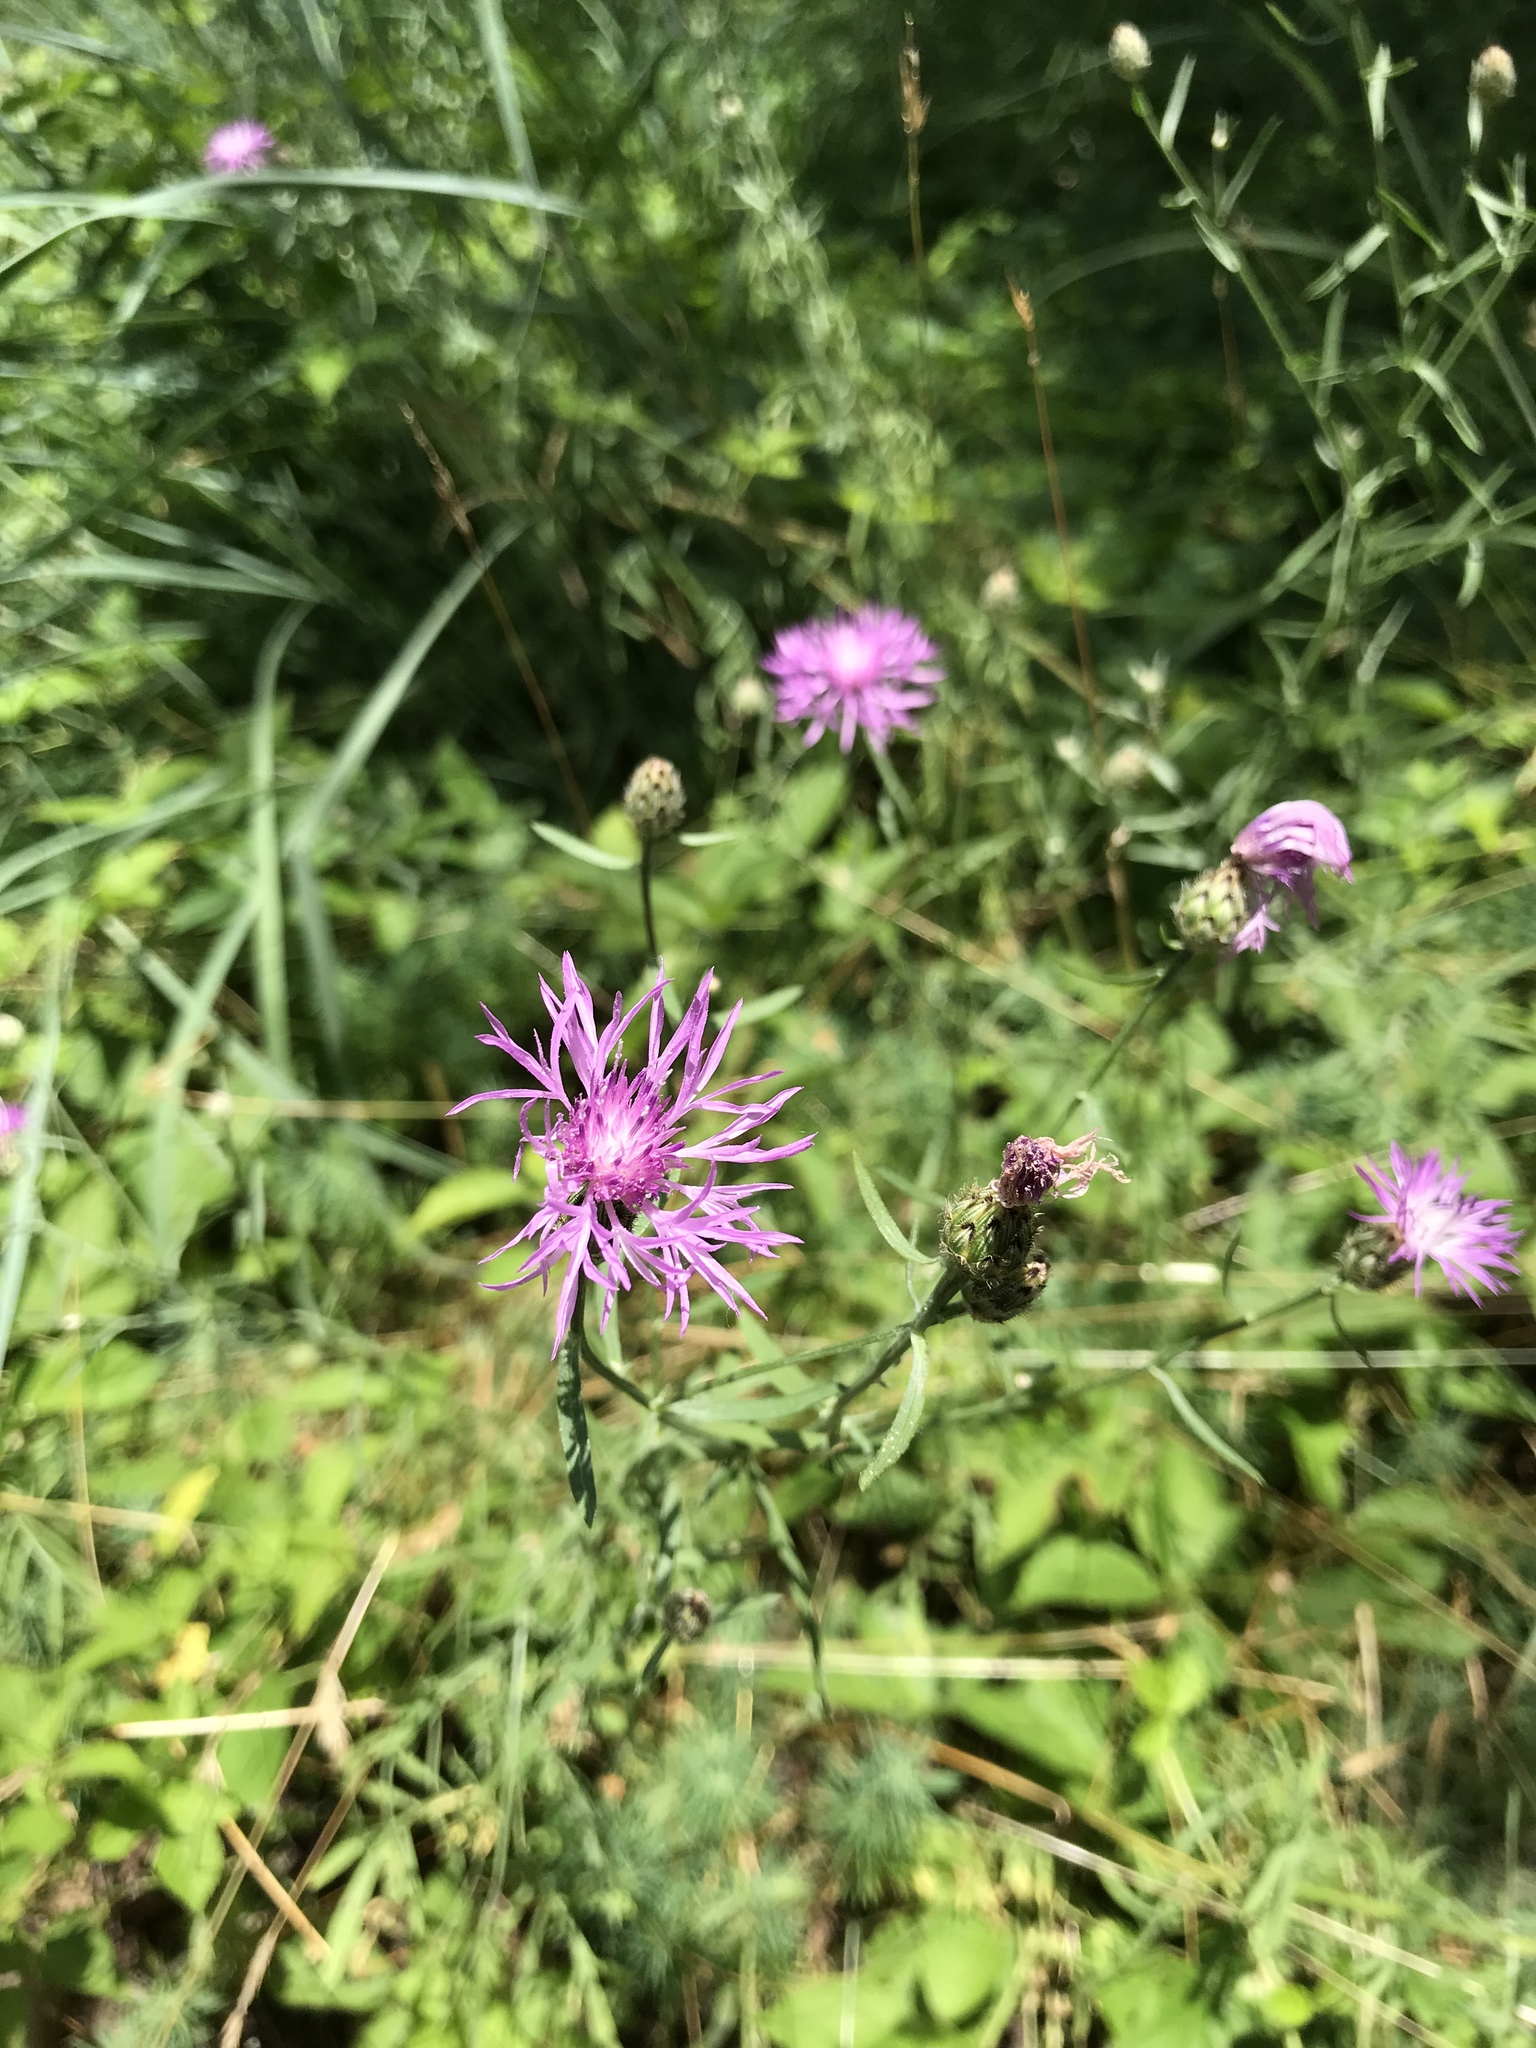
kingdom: Plantae
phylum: Tracheophyta
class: Magnoliopsida
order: Asterales
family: Asteraceae
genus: Centaurea
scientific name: Centaurea stoebe
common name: Spotted knapweed
